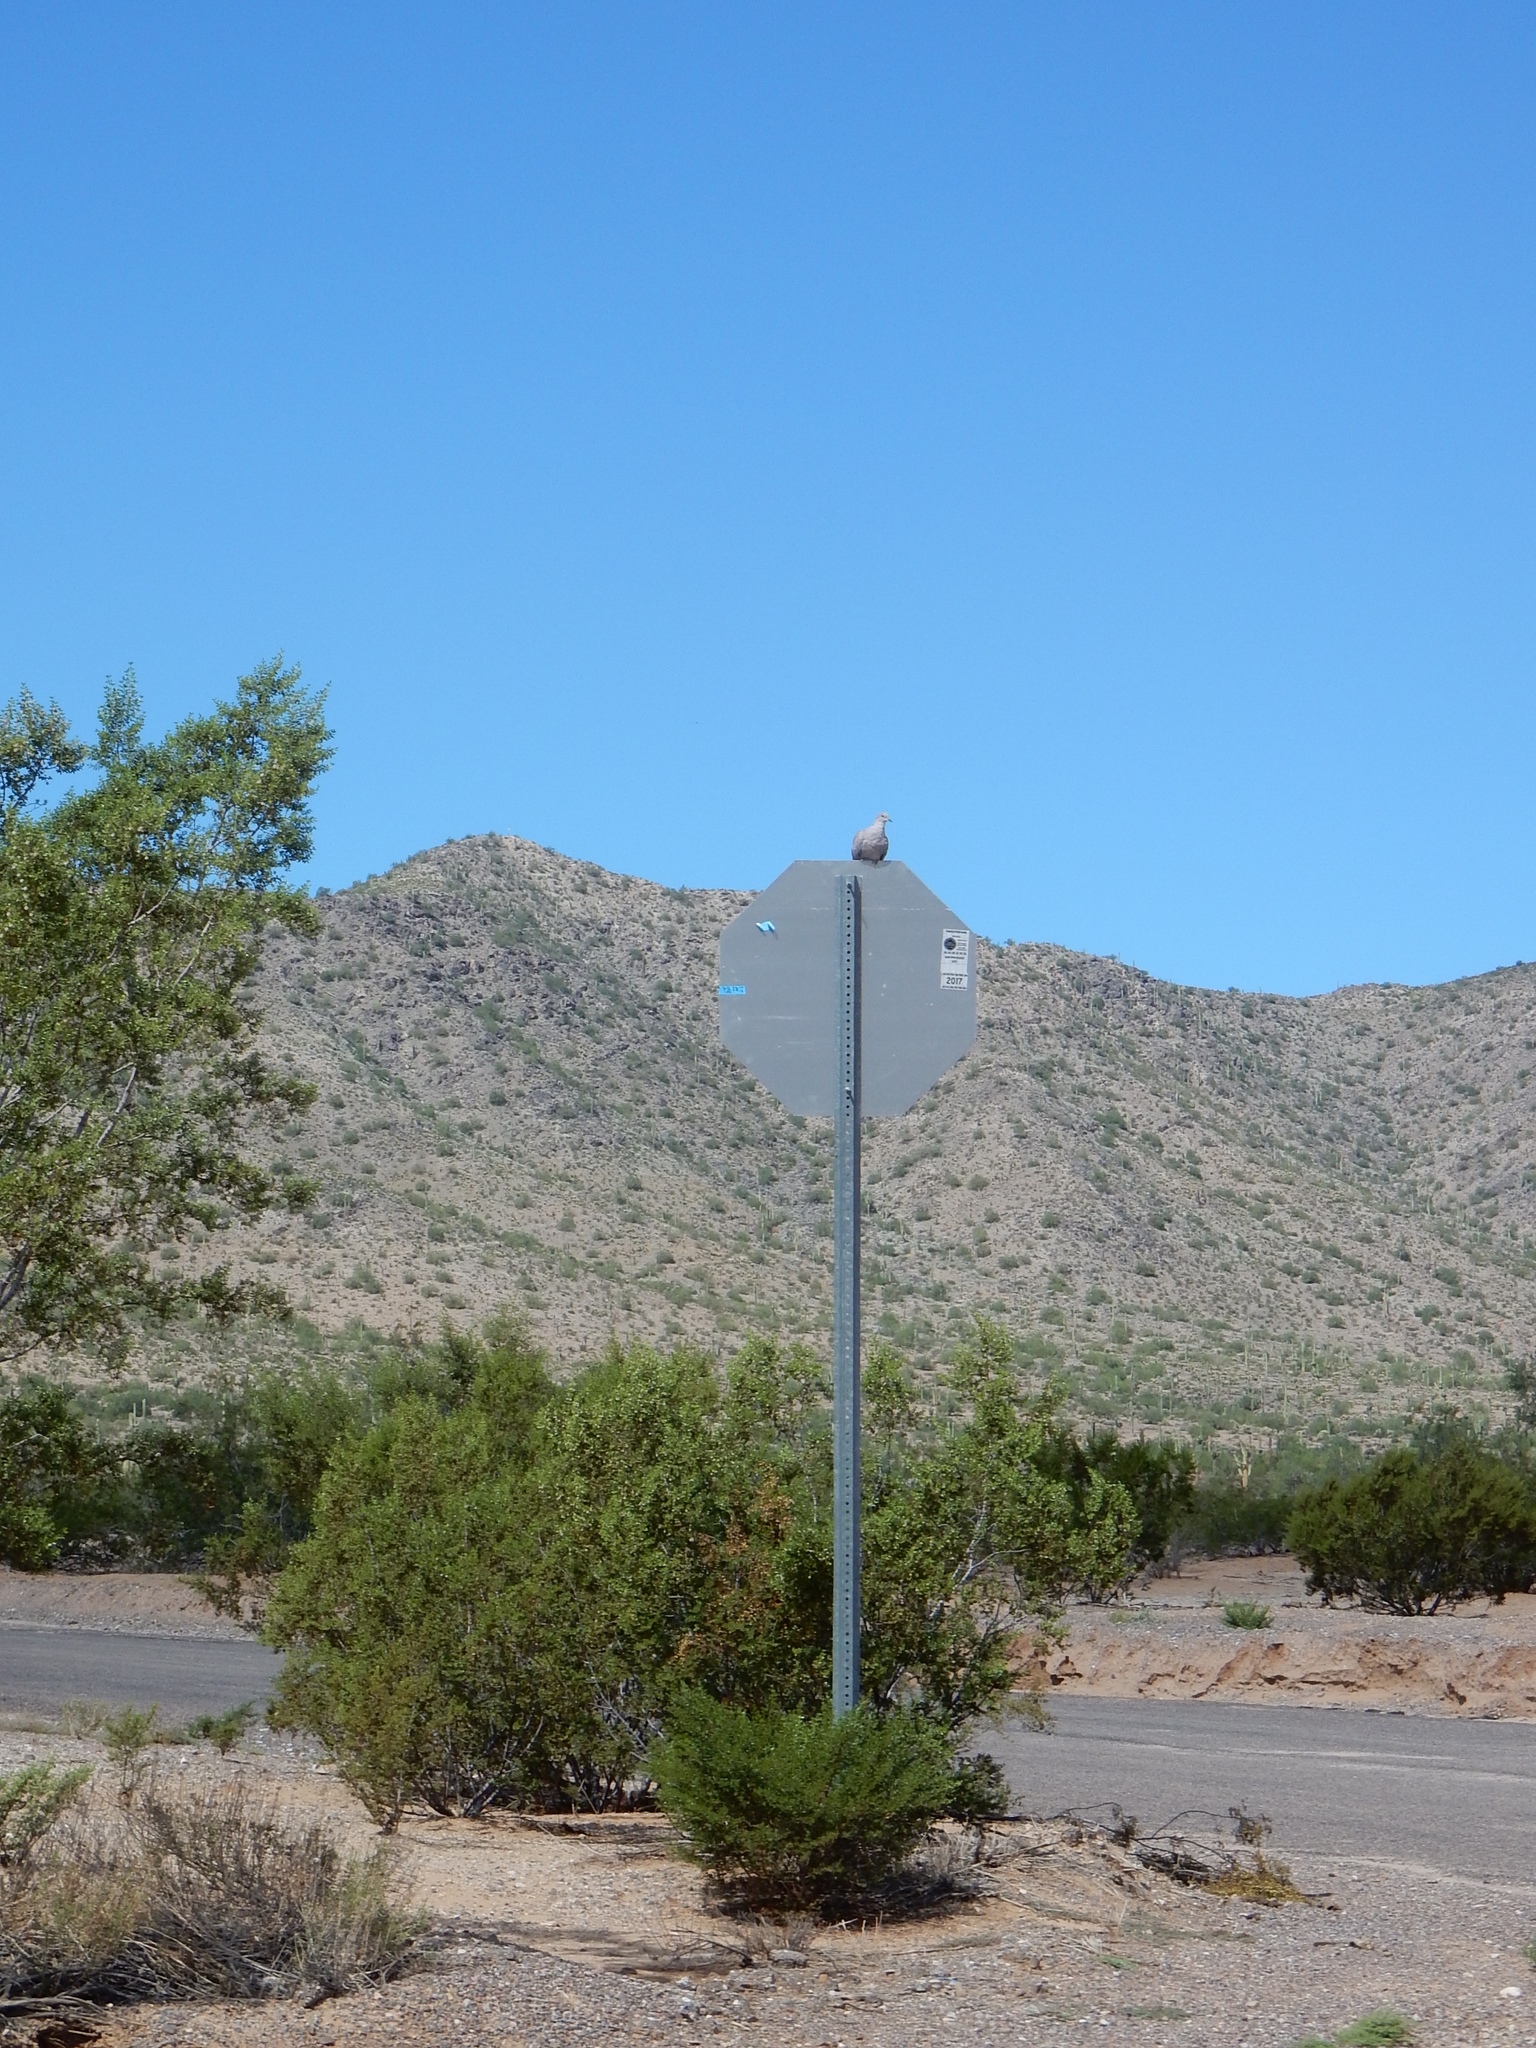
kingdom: Animalia
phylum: Chordata
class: Aves
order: Columbiformes
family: Columbidae
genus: Streptopelia
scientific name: Streptopelia decaocto
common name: Eurasian collared dove
